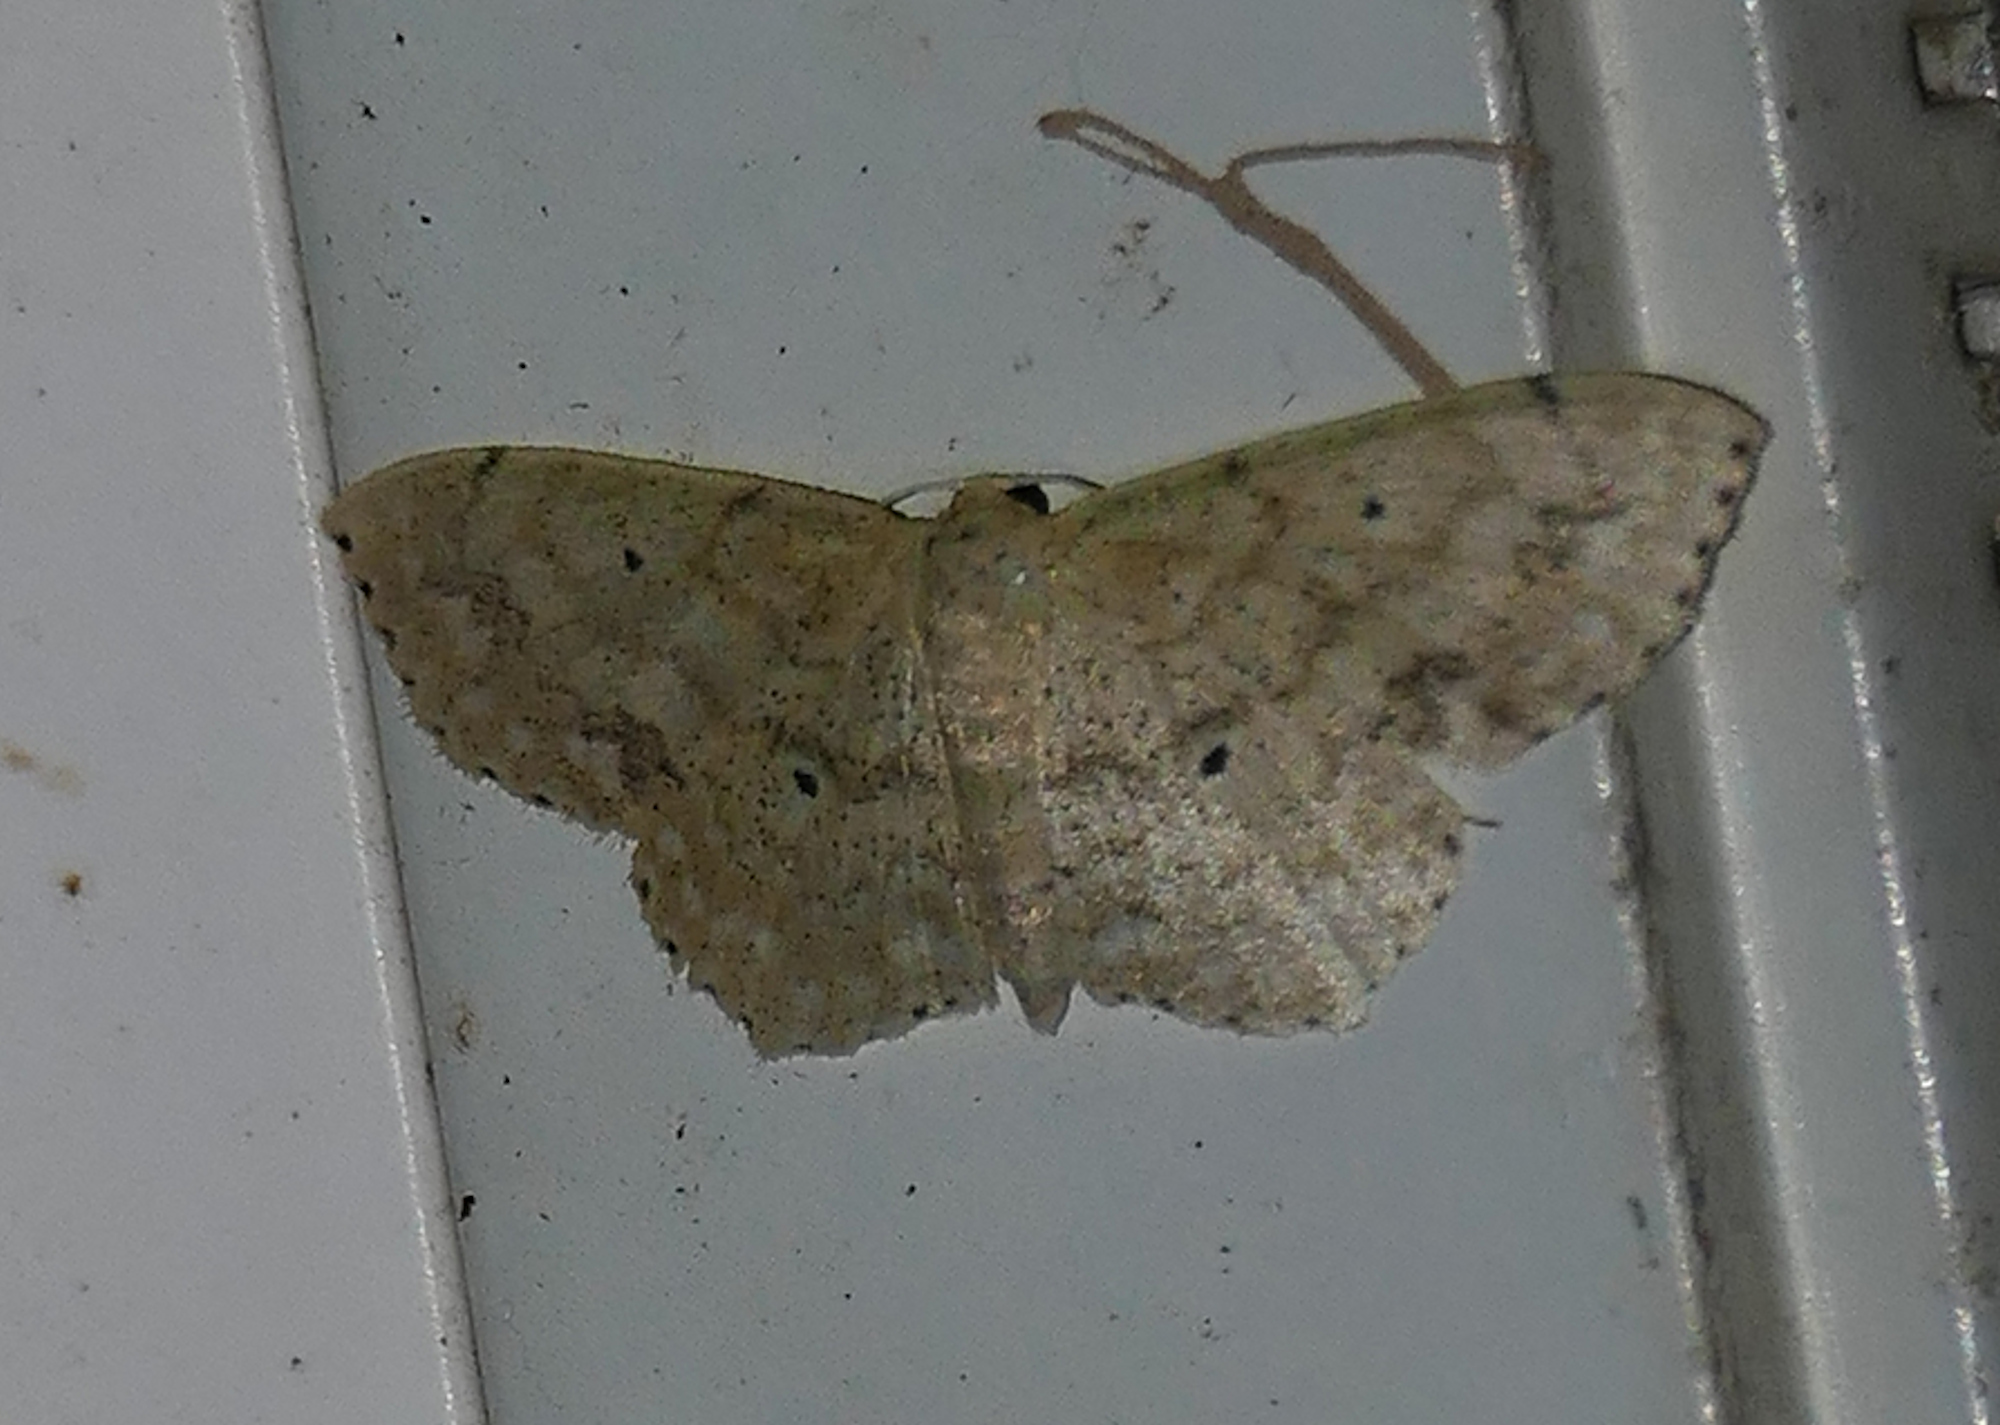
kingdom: Animalia
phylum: Arthropoda
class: Insecta
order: Lepidoptera
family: Geometridae
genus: Scopula
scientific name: Scopula compensata
